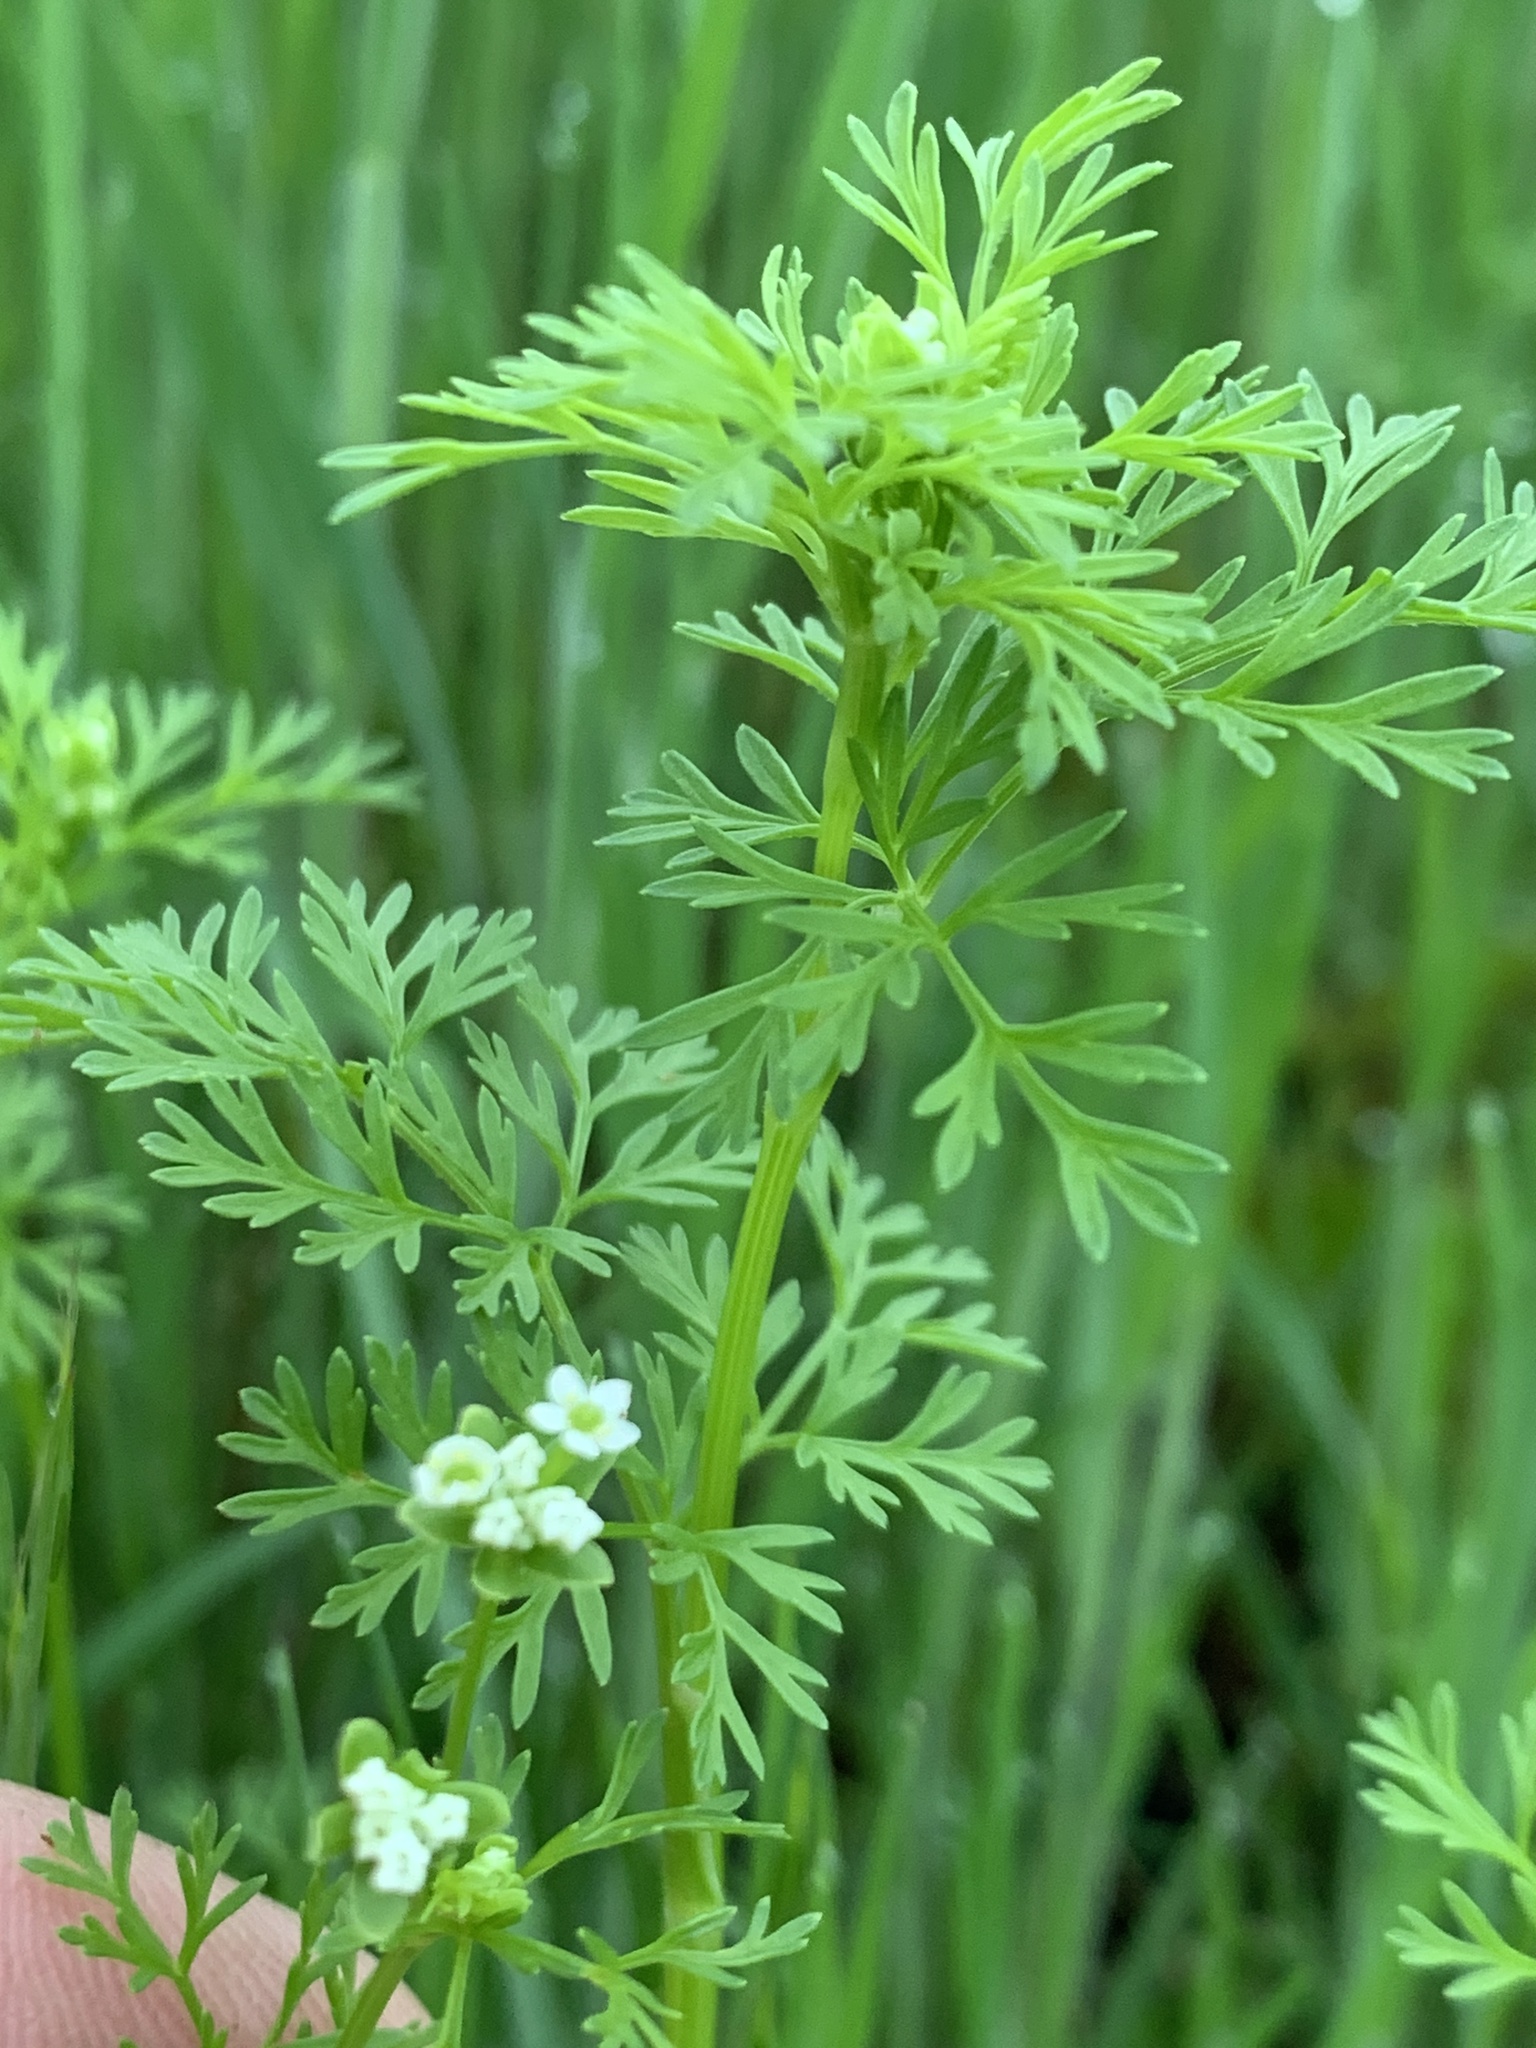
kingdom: Plantae
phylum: Tracheophyta
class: Magnoliopsida
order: Apiales
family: Apiaceae
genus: Chaerophyllum
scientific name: Chaerophyllum tainturieri
